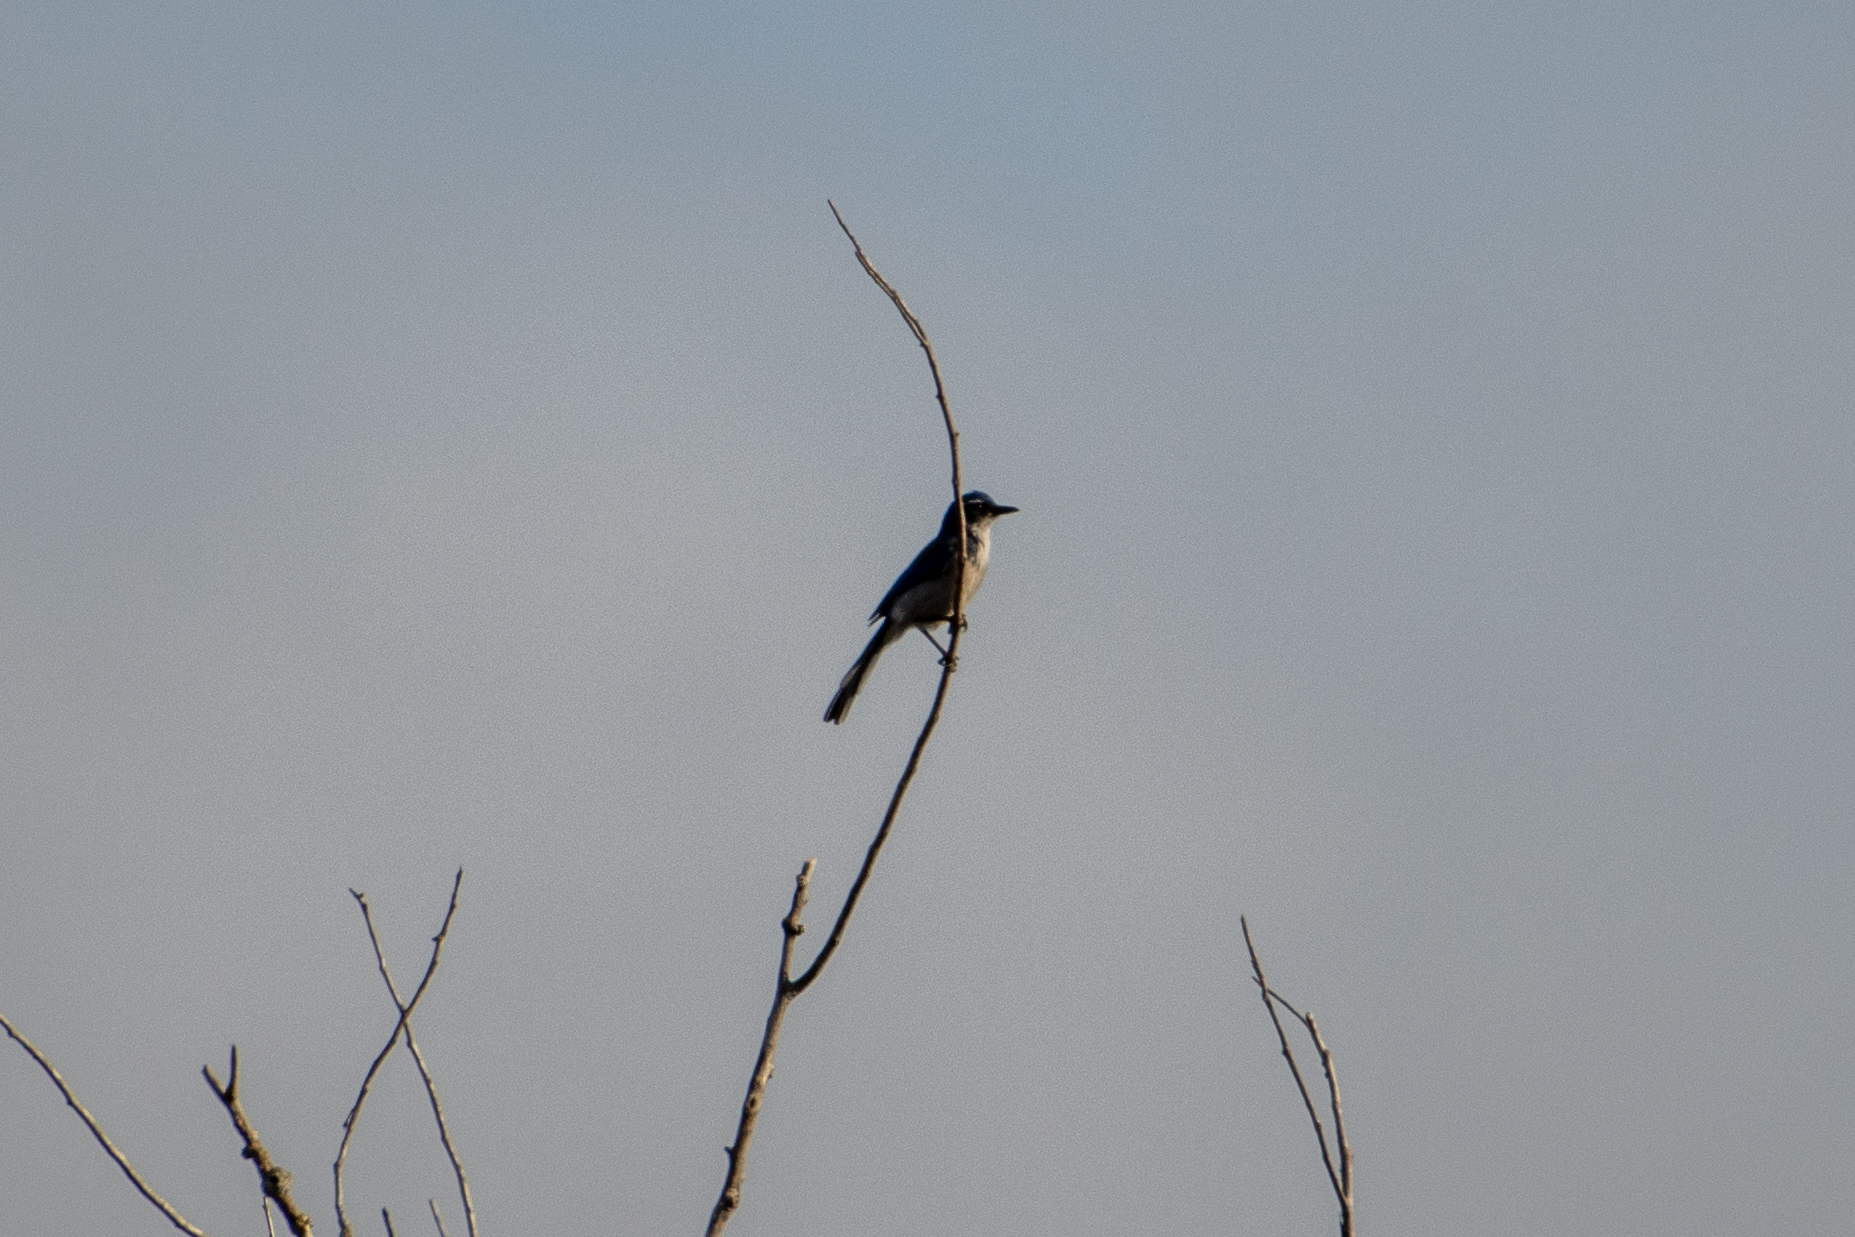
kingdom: Animalia
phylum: Chordata
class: Aves
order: Passeriformes
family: Corvidae
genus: Aphelocoma
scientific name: Aphelocoma californica
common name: California scrub-jay
